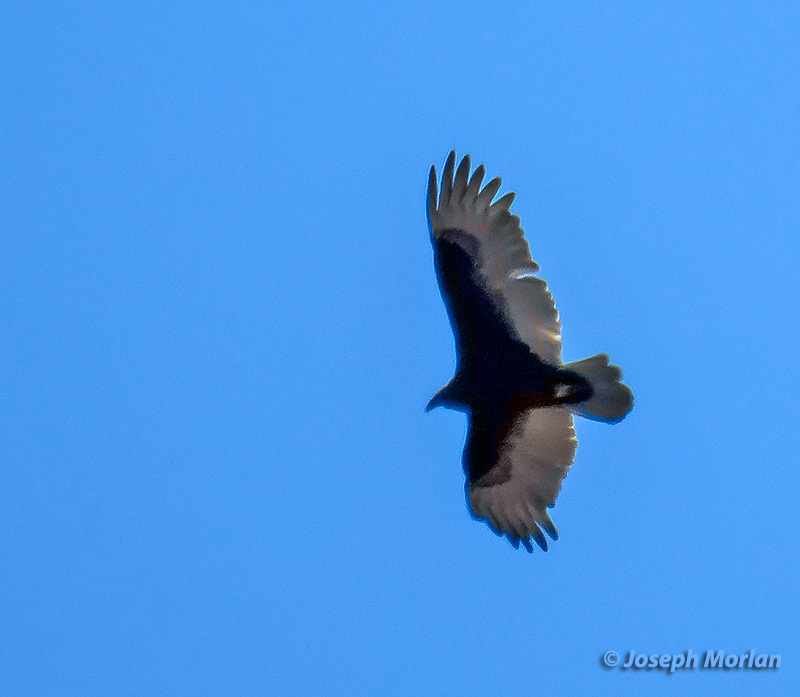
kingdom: Animalia
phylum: Chordata
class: Aves
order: Accipitriformes
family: Cathartidae
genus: Cathartes
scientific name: Cathartes aura
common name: Turkey vulture
